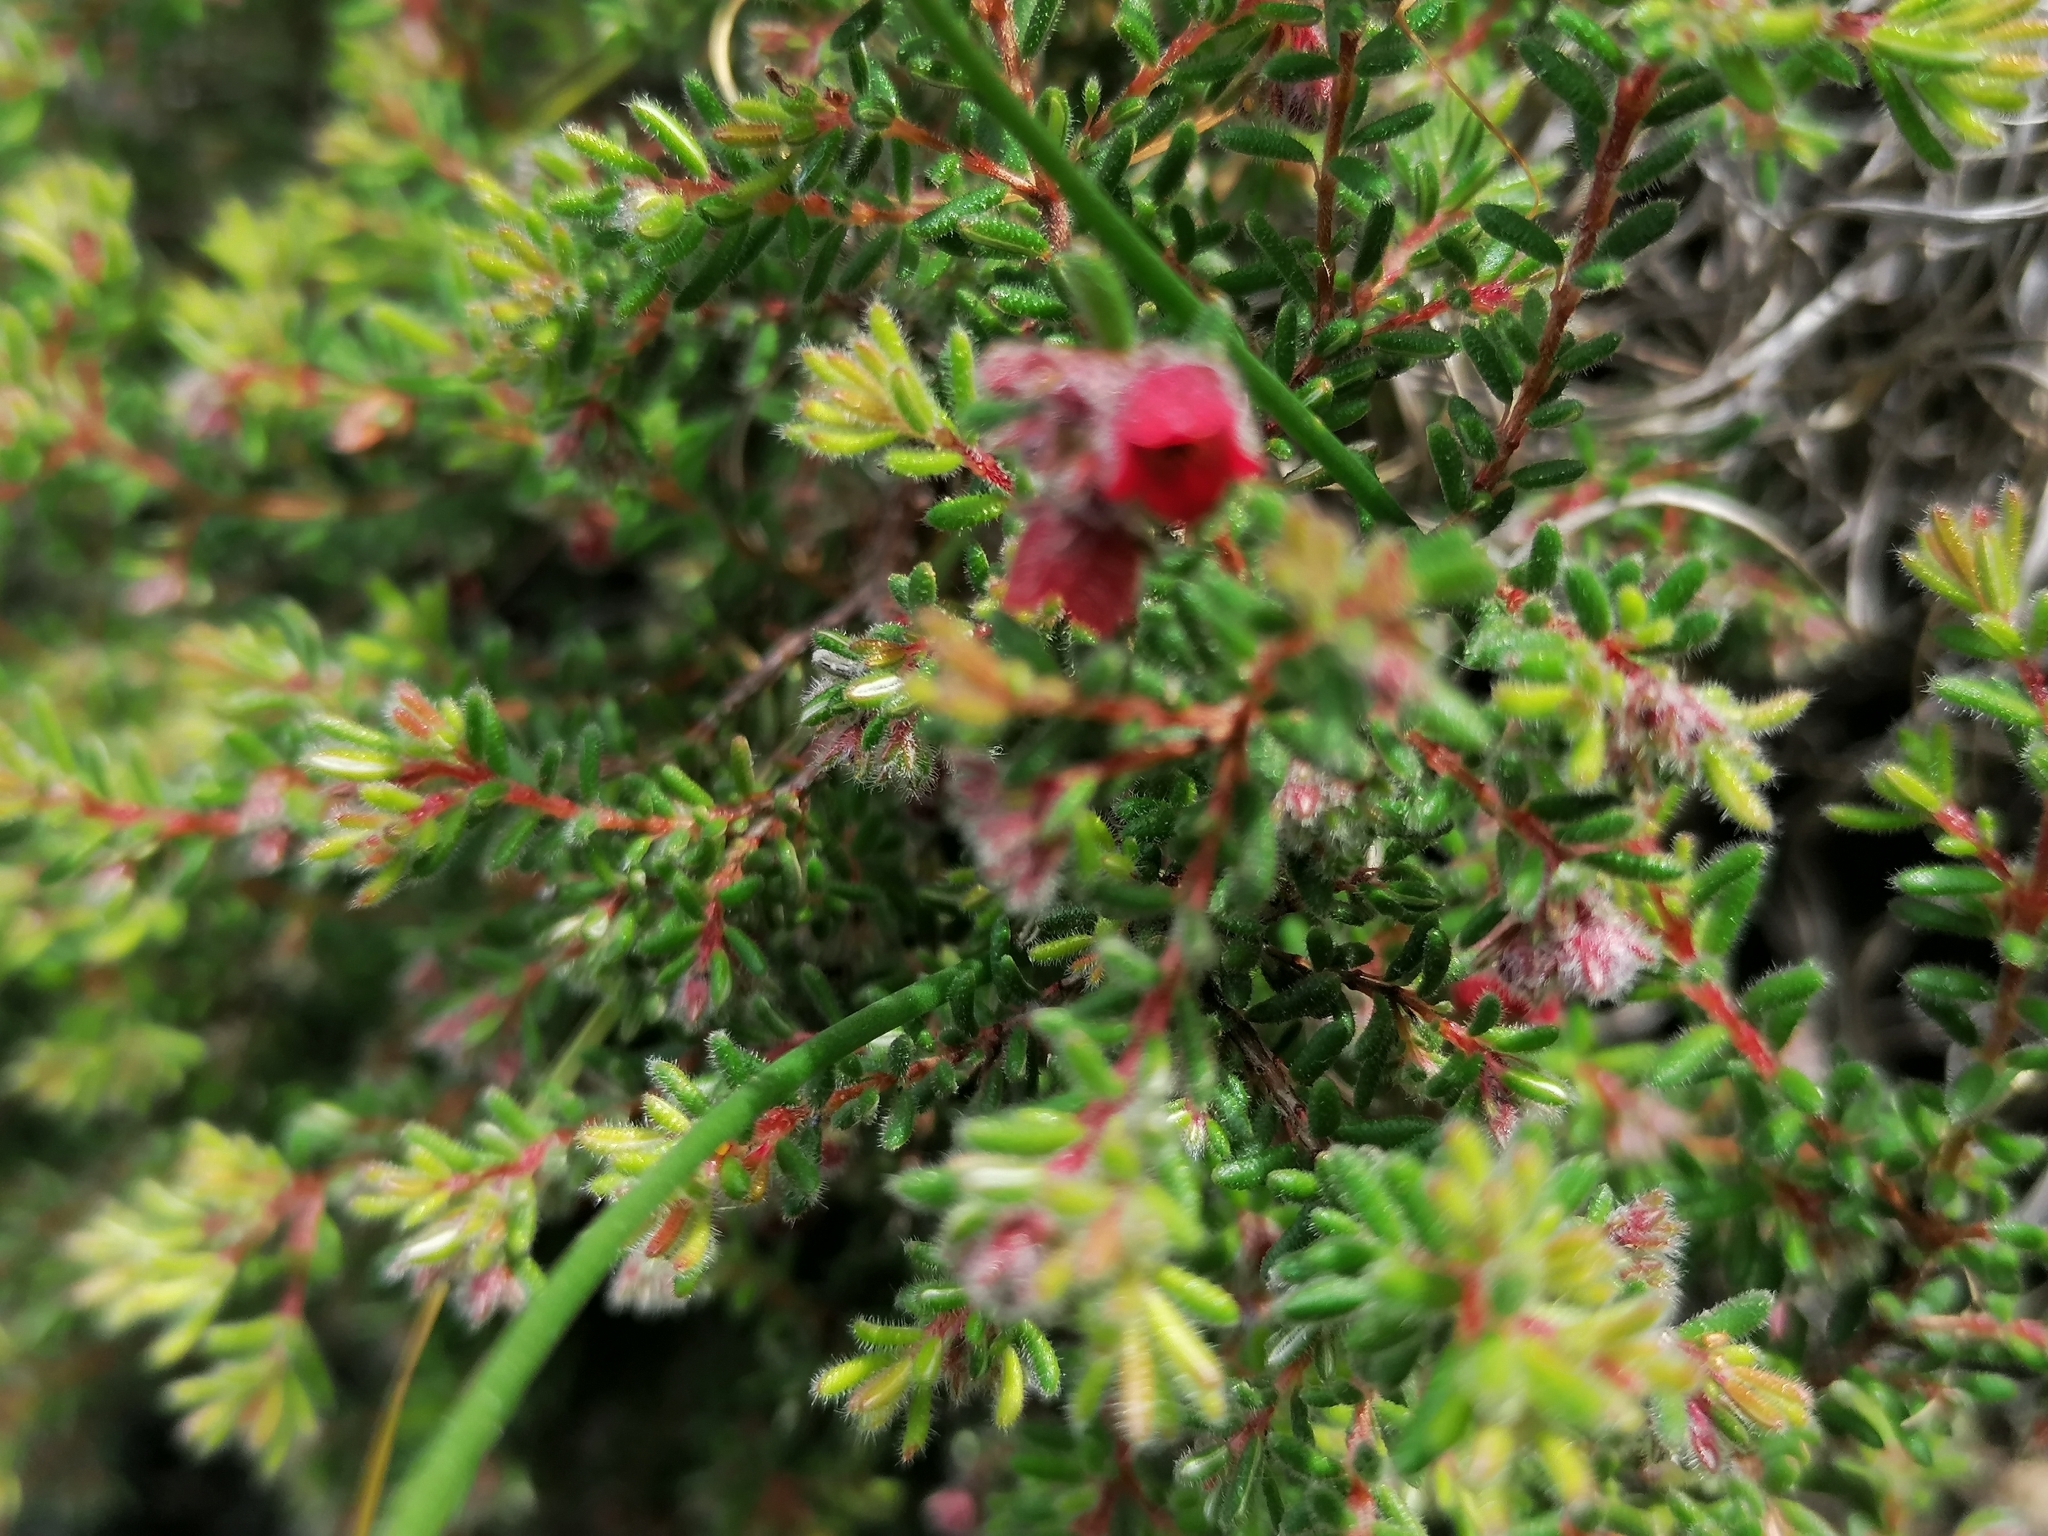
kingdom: Plantae
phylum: Tracheophyta
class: Magnoliopsida
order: Ericales
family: Ericaceae
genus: Erica
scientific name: Erica haematocodon
